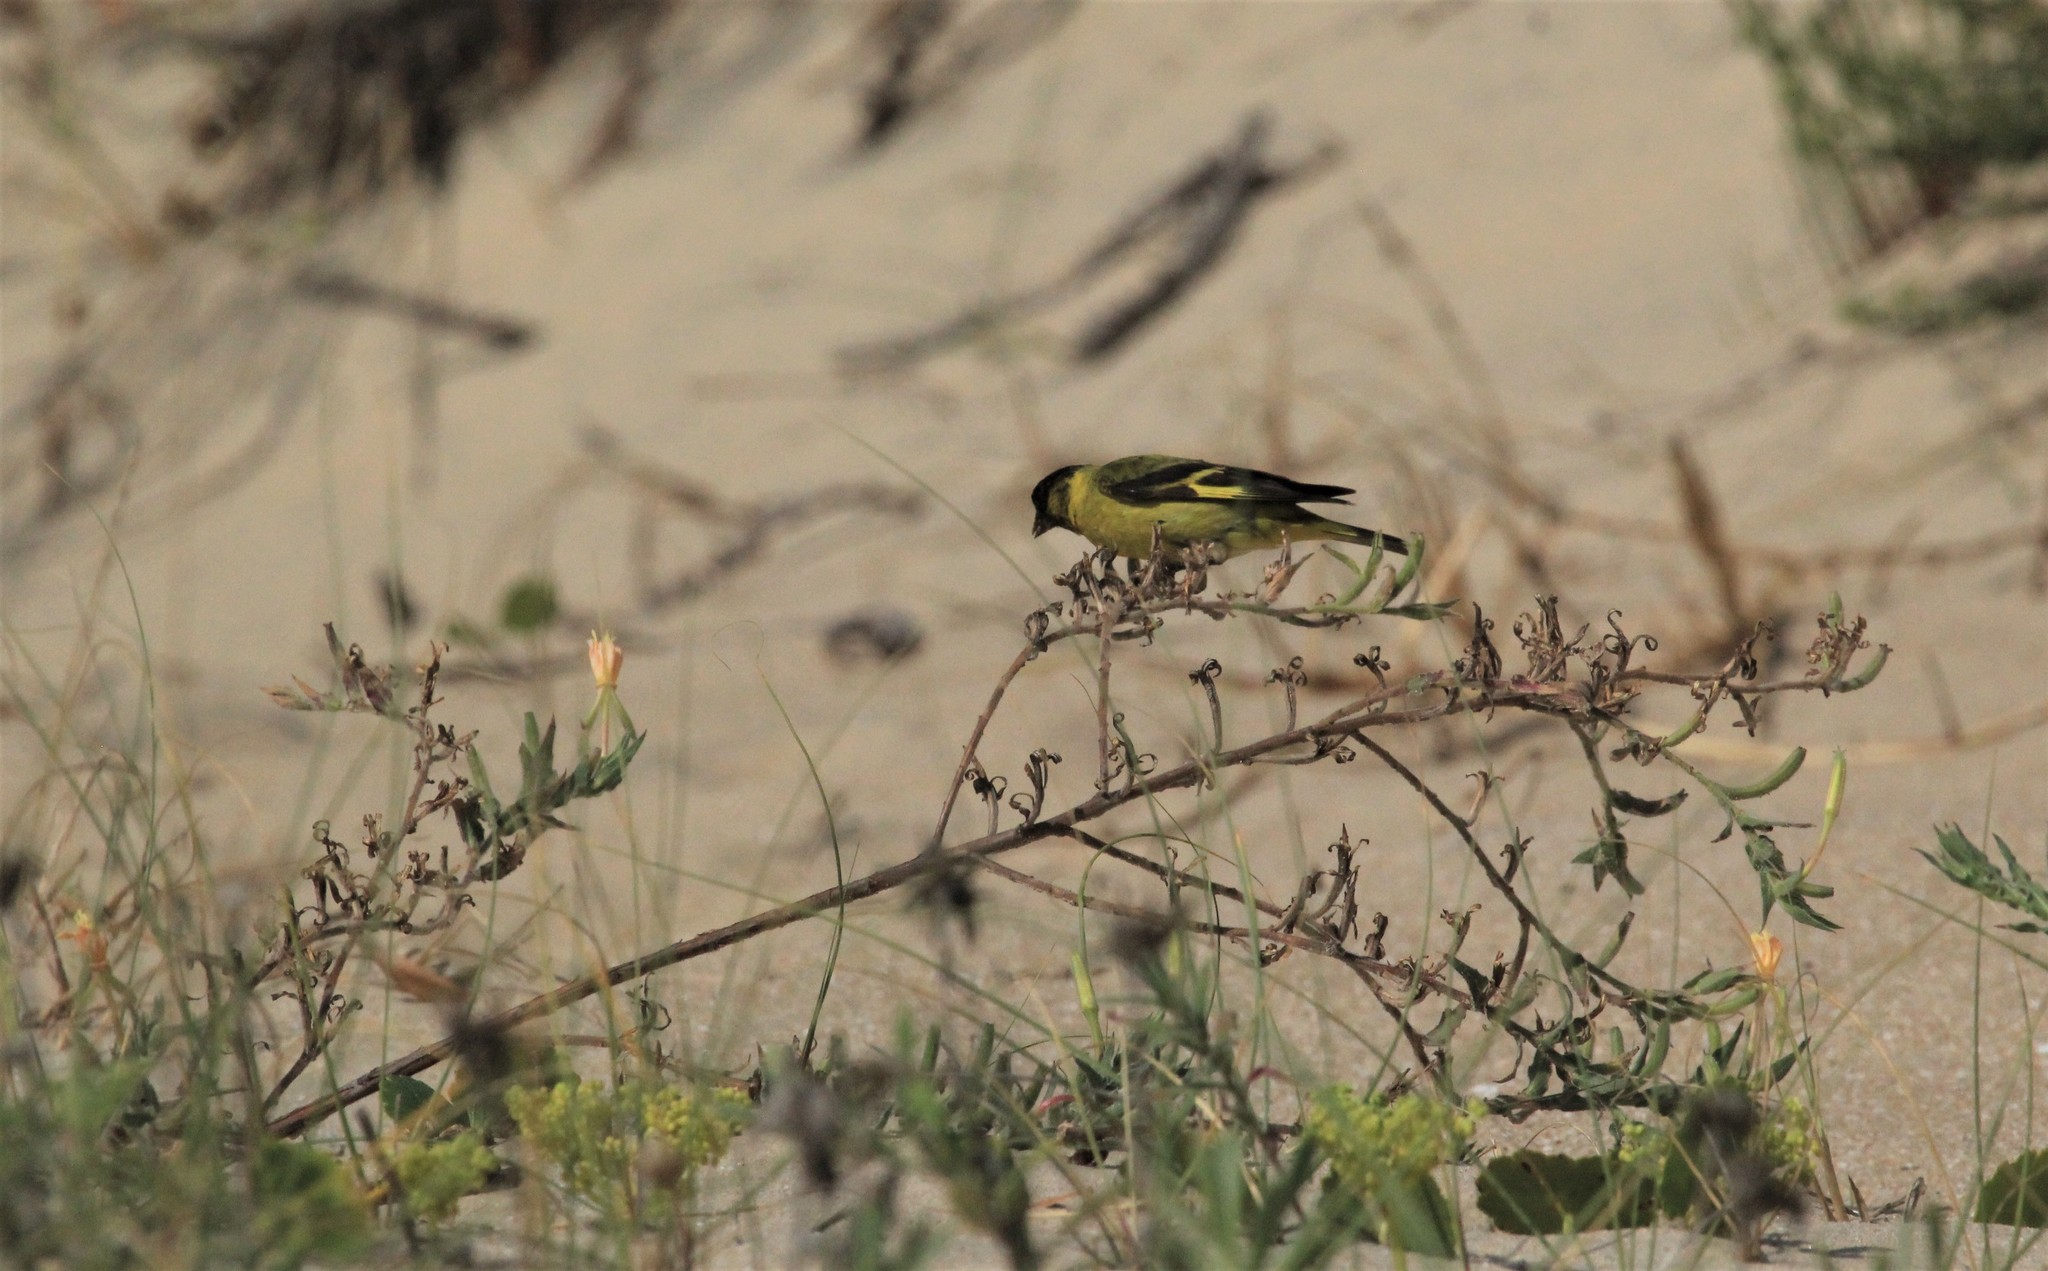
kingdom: Animalia
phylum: Chordata
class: Aves
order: Passeriformes
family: Fringillidae
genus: Spinus
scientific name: Spinus magellanicus
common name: Hooded siskin
